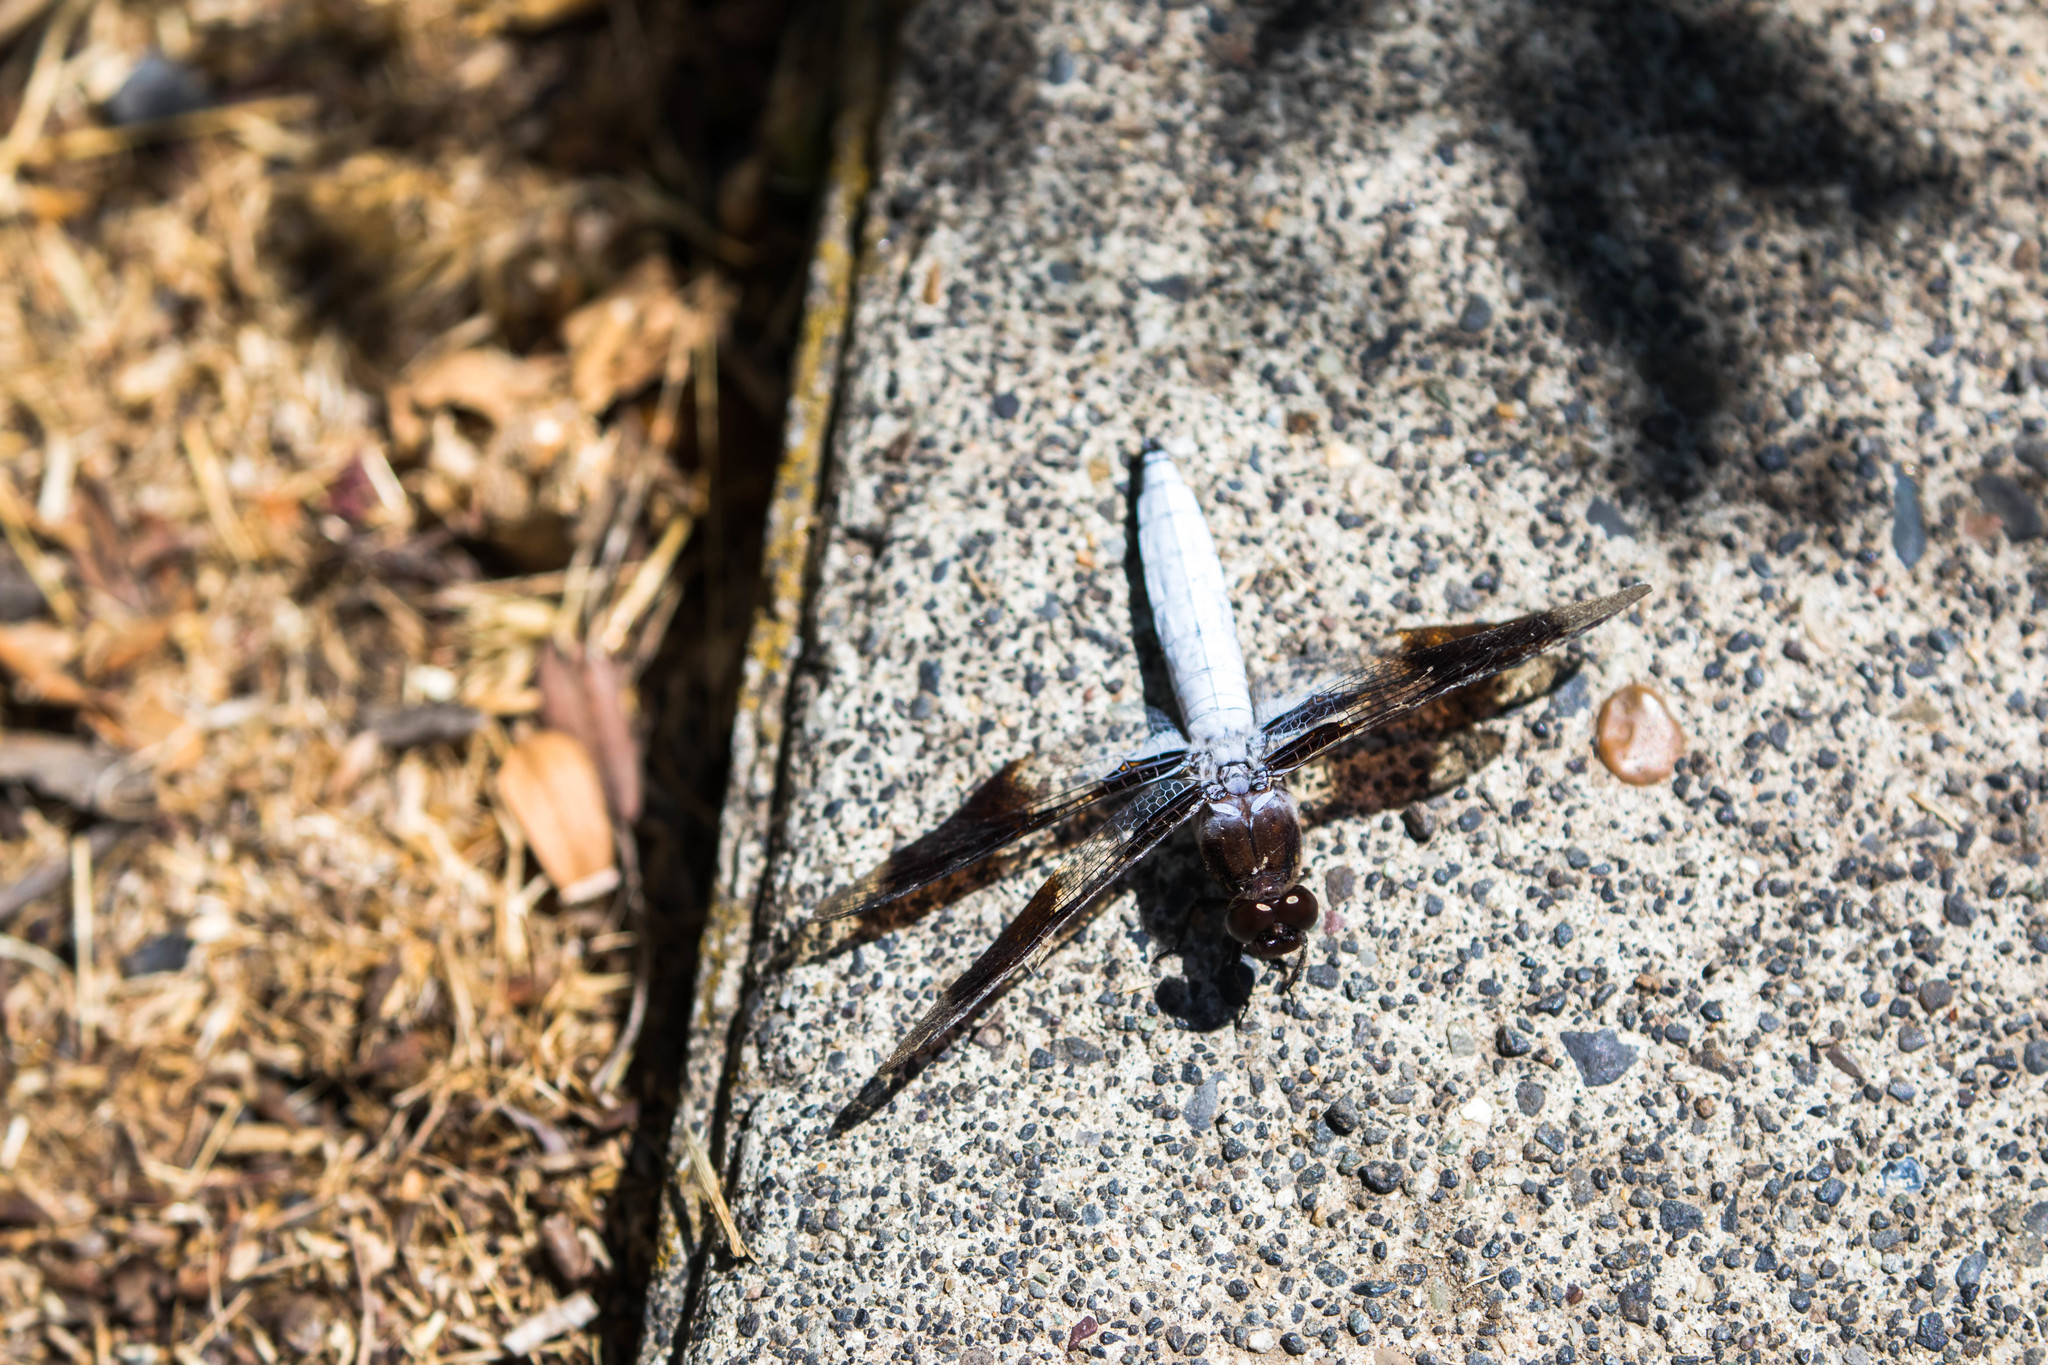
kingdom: Animalia
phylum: Arthropoda
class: Insecta
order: Odonata
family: Libellulidae
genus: Plathemis
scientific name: Plathemis lydia
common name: Common whitetail
